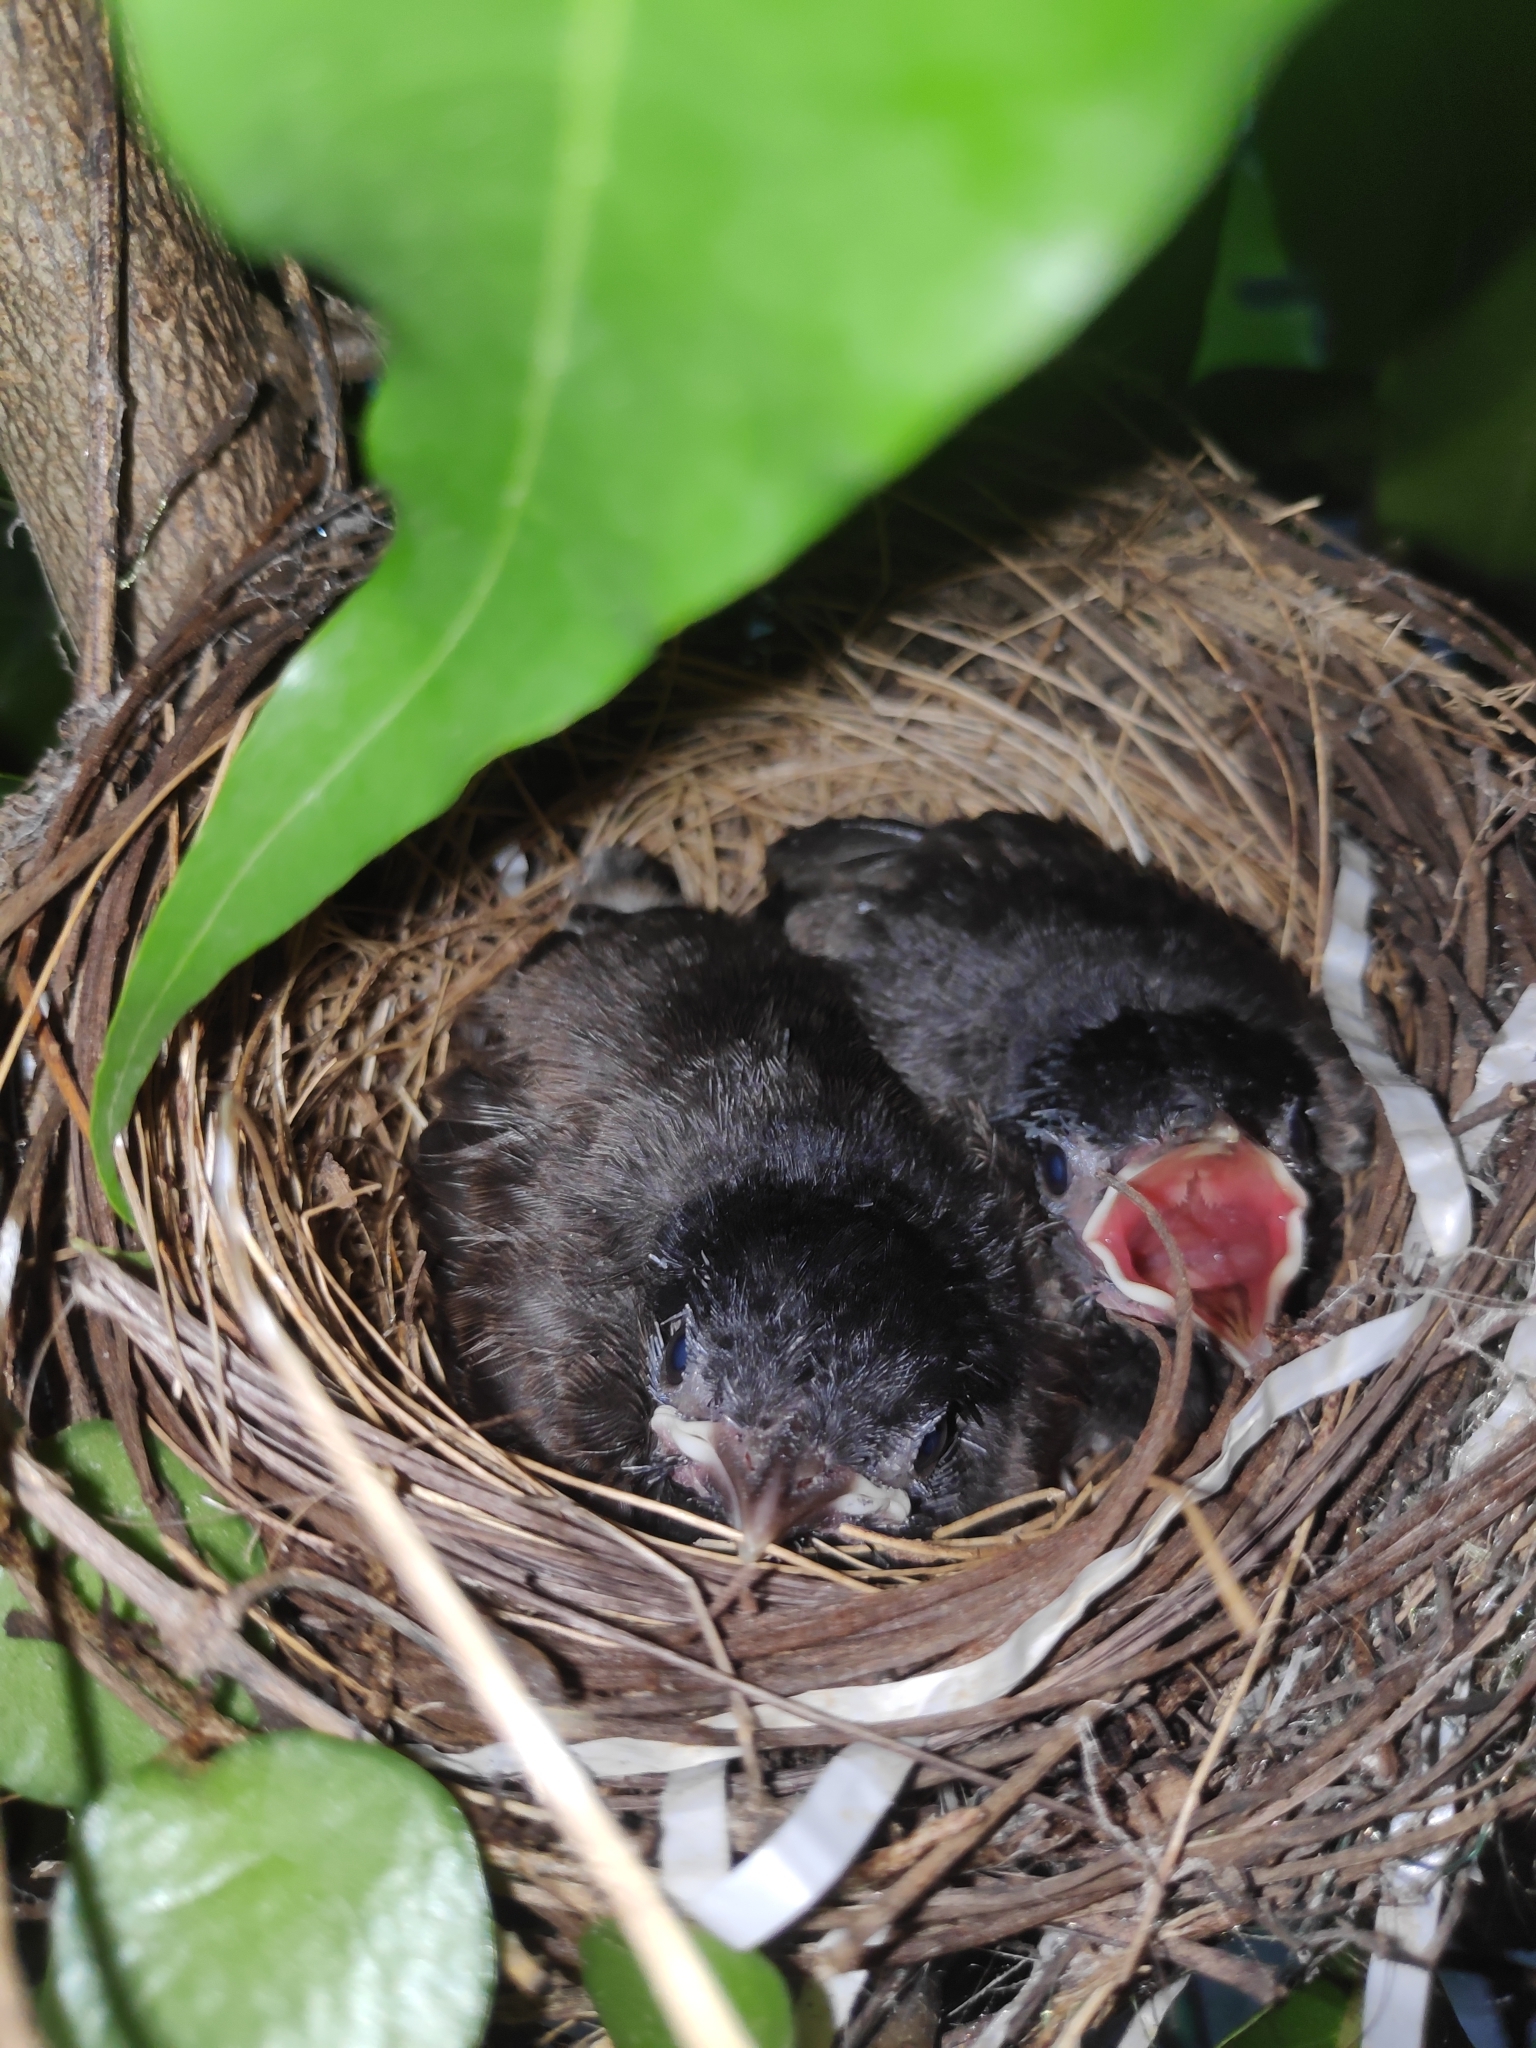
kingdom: Animalia
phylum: Chordata
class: Aves
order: Passeriformes
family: Muscicapidae
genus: Copsychus
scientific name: Copsychus saularis
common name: Oriental magpie-robin
